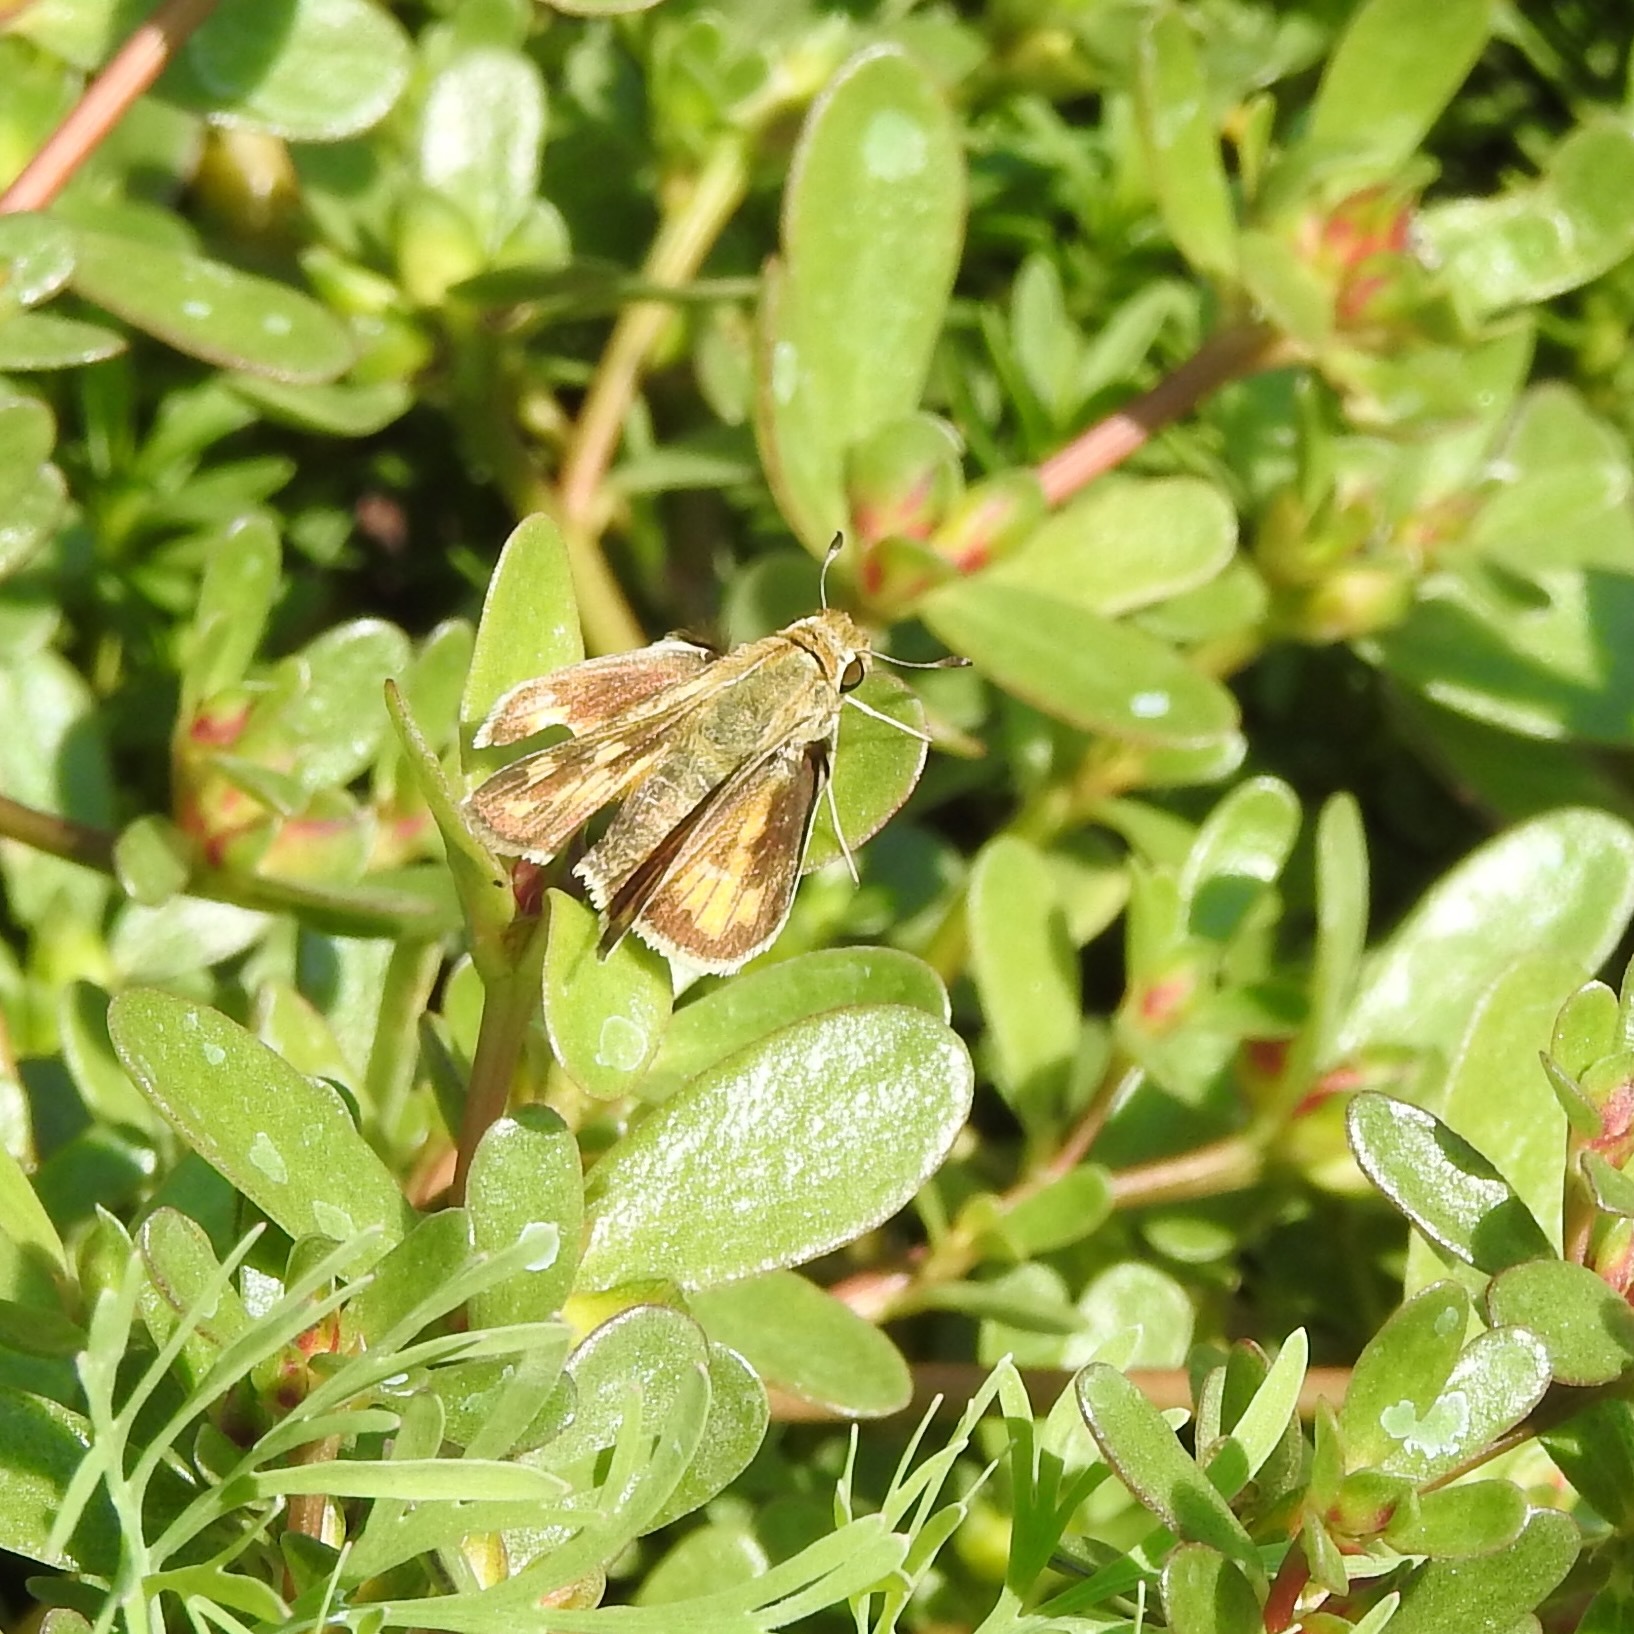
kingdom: Animalia
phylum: Arthropoda
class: Insecta
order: Lepidoptera
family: Hesperiidae
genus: Hylephila
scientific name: Hylephila phyleus
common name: Fiery skipper
